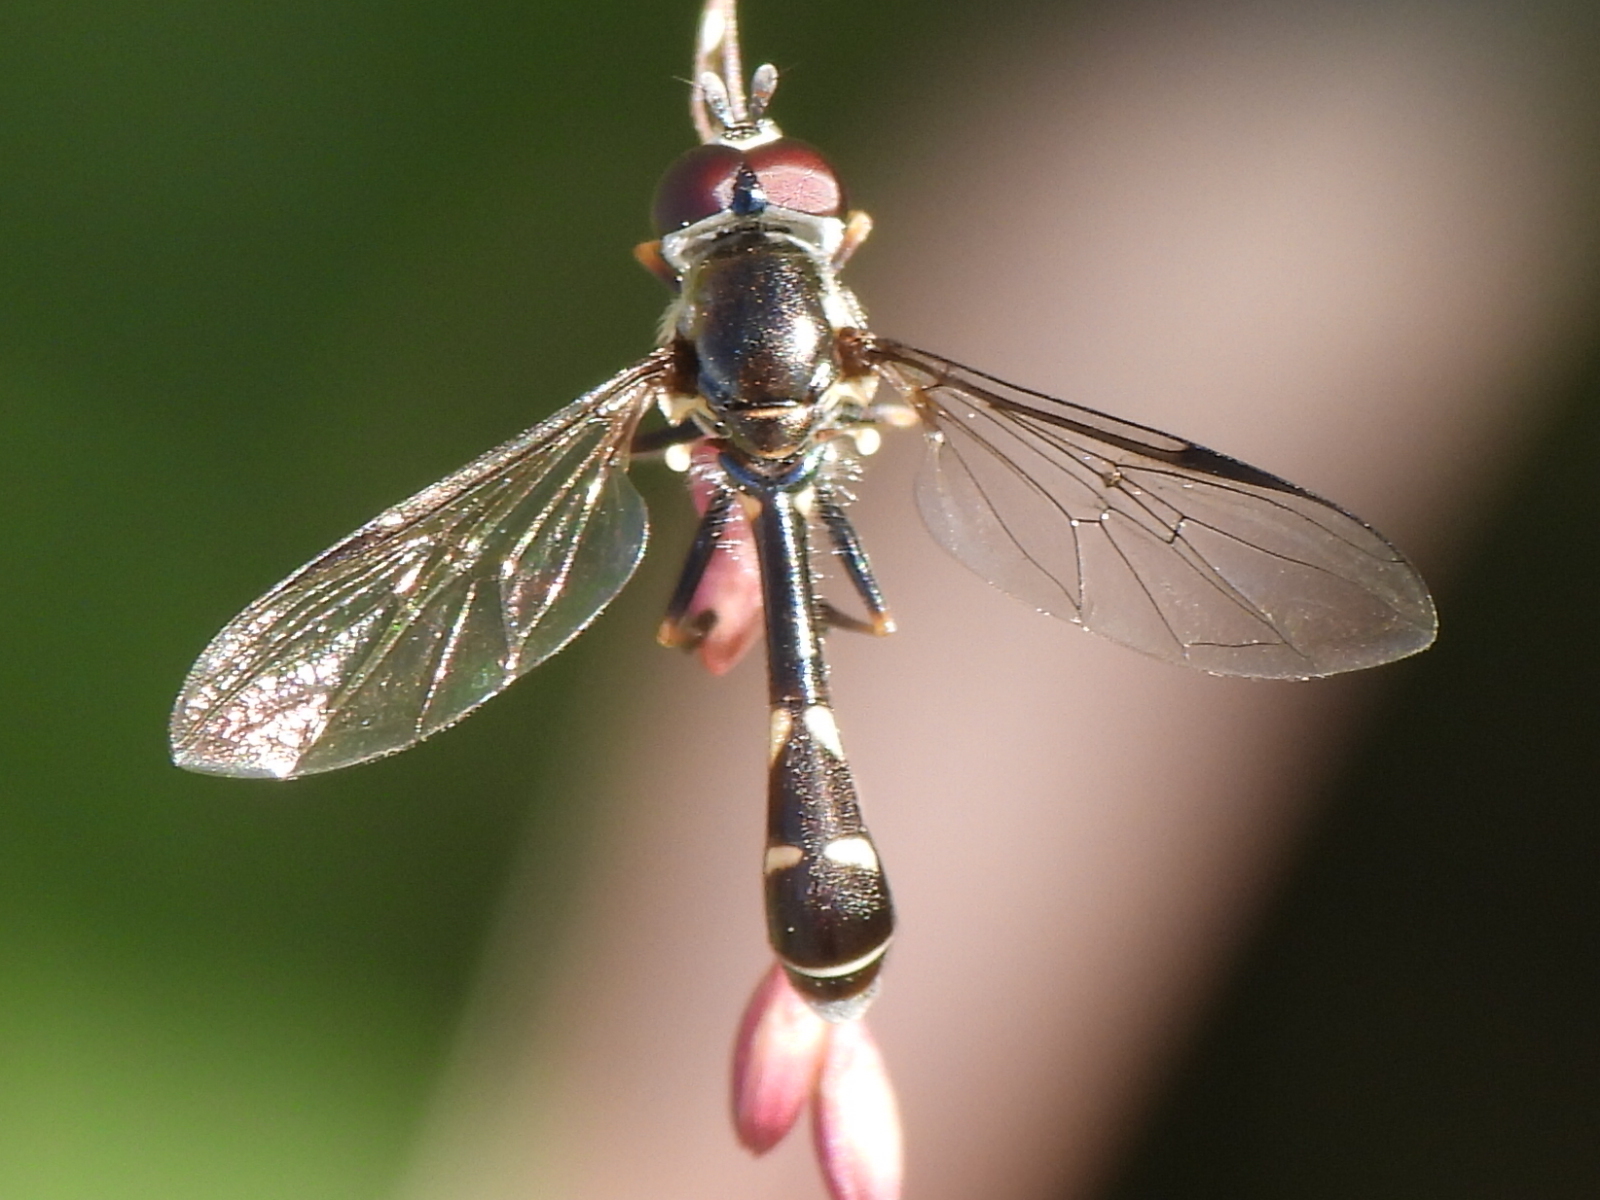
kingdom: Animalia
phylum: Arthropoda
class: Insecta
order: Diptera
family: Syrphidae
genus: Dioprosopa
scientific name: Dioprosopa clavatus
